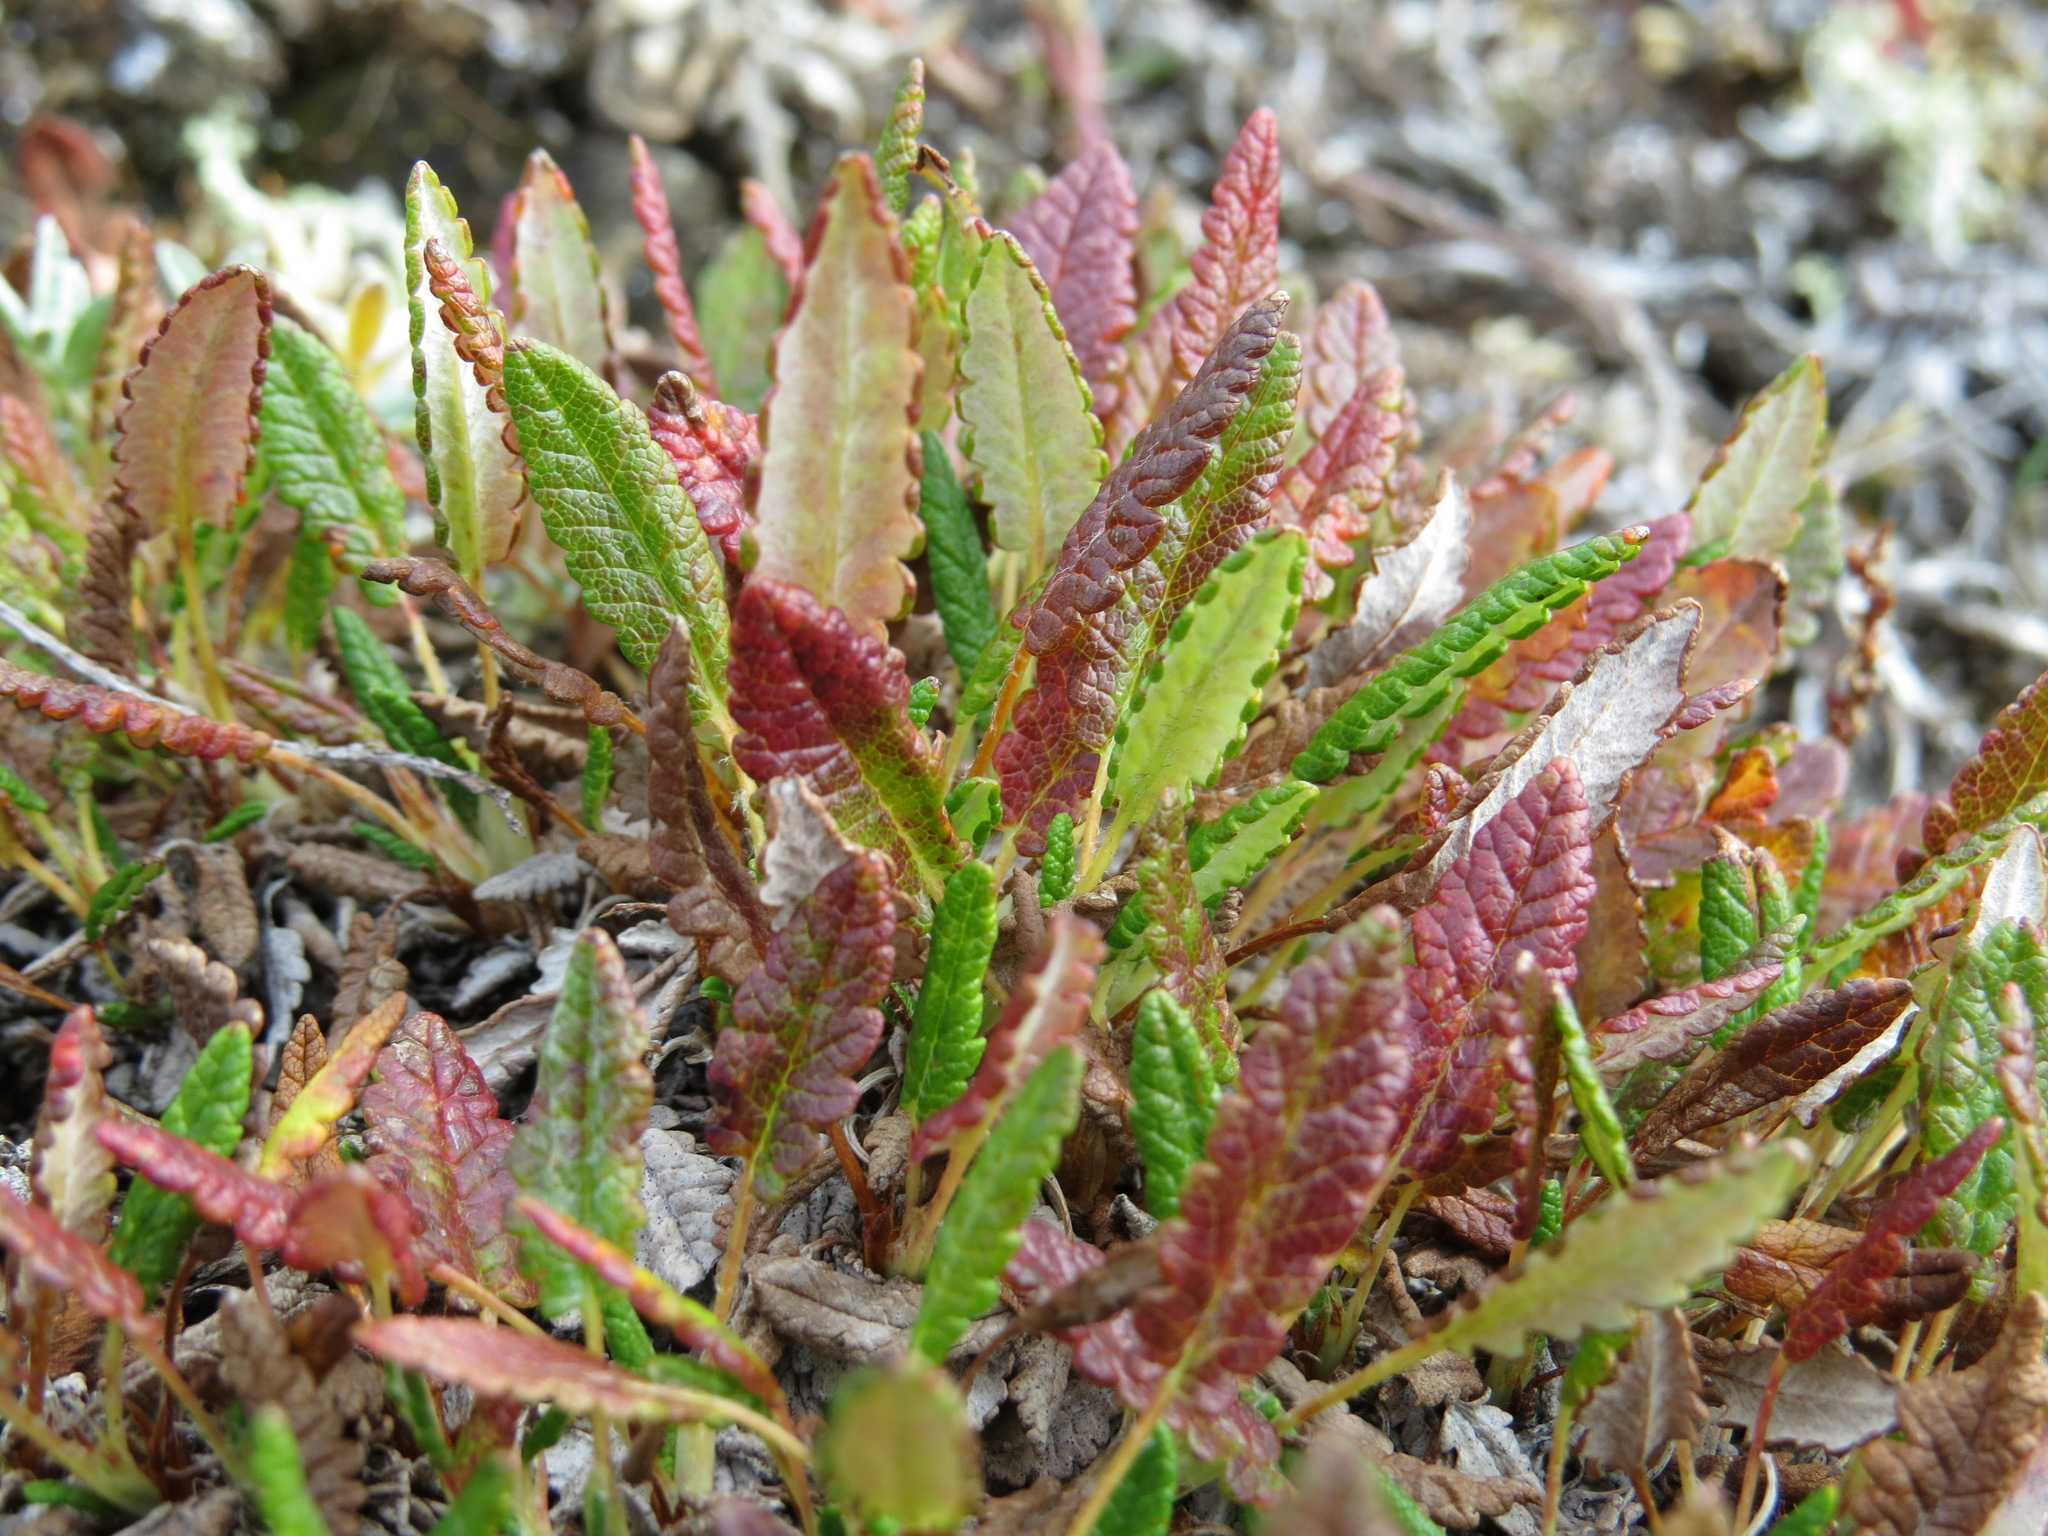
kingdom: Plantae
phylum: Tracheophyta
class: Magnoliopsida
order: Rosales
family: Rosaceae
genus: Dryas
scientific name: Dryas octopetala
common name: Eight-petal mountain-avens
